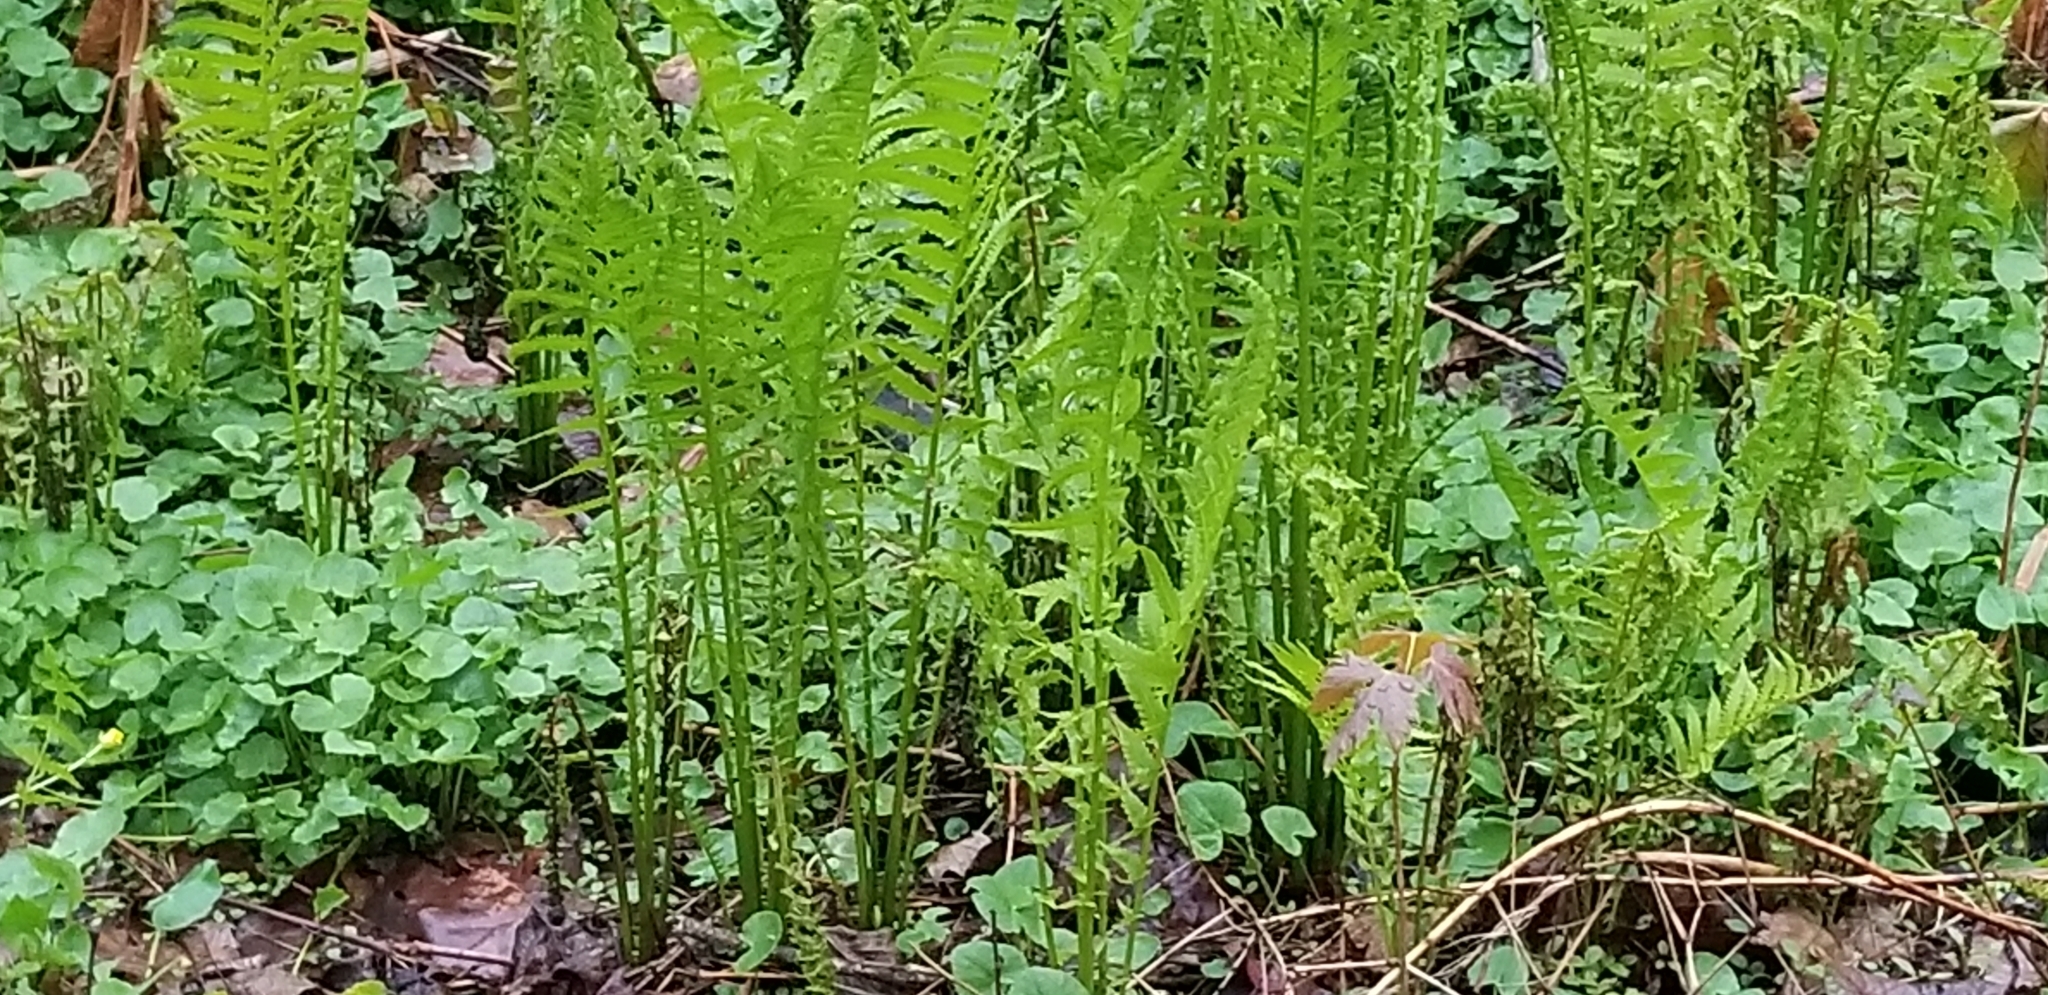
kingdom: Plantae
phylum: Tracheophyta
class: Polypodiopsida
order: Polypodiales
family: Onocleaceae
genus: Matteuccia
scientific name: Matteuccia struthiopteris
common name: Ostrich fern
